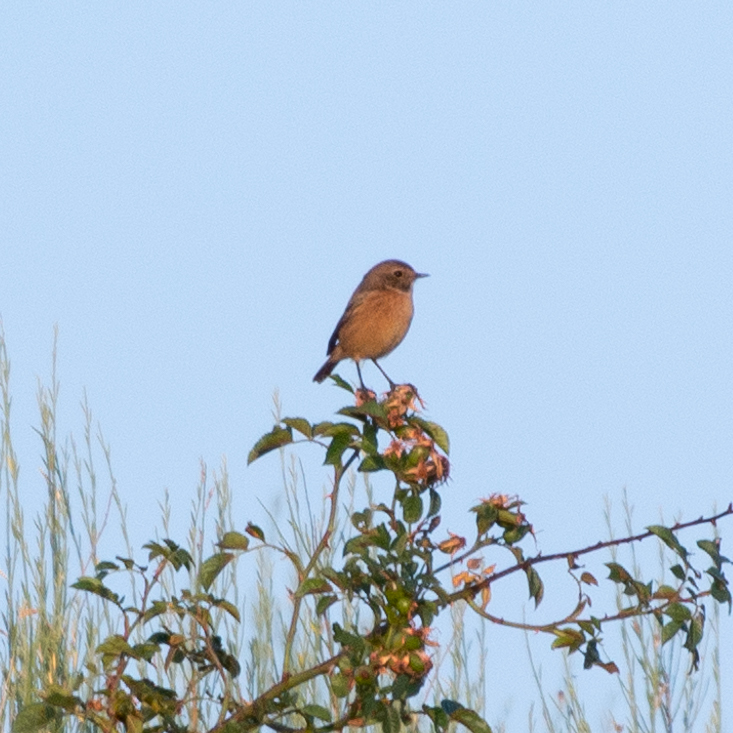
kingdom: Animalia
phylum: Chordata
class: Aves
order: Passeriformes
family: Muscicapidae
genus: Saxicola
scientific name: Saxicola rubicola
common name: European stonechat
